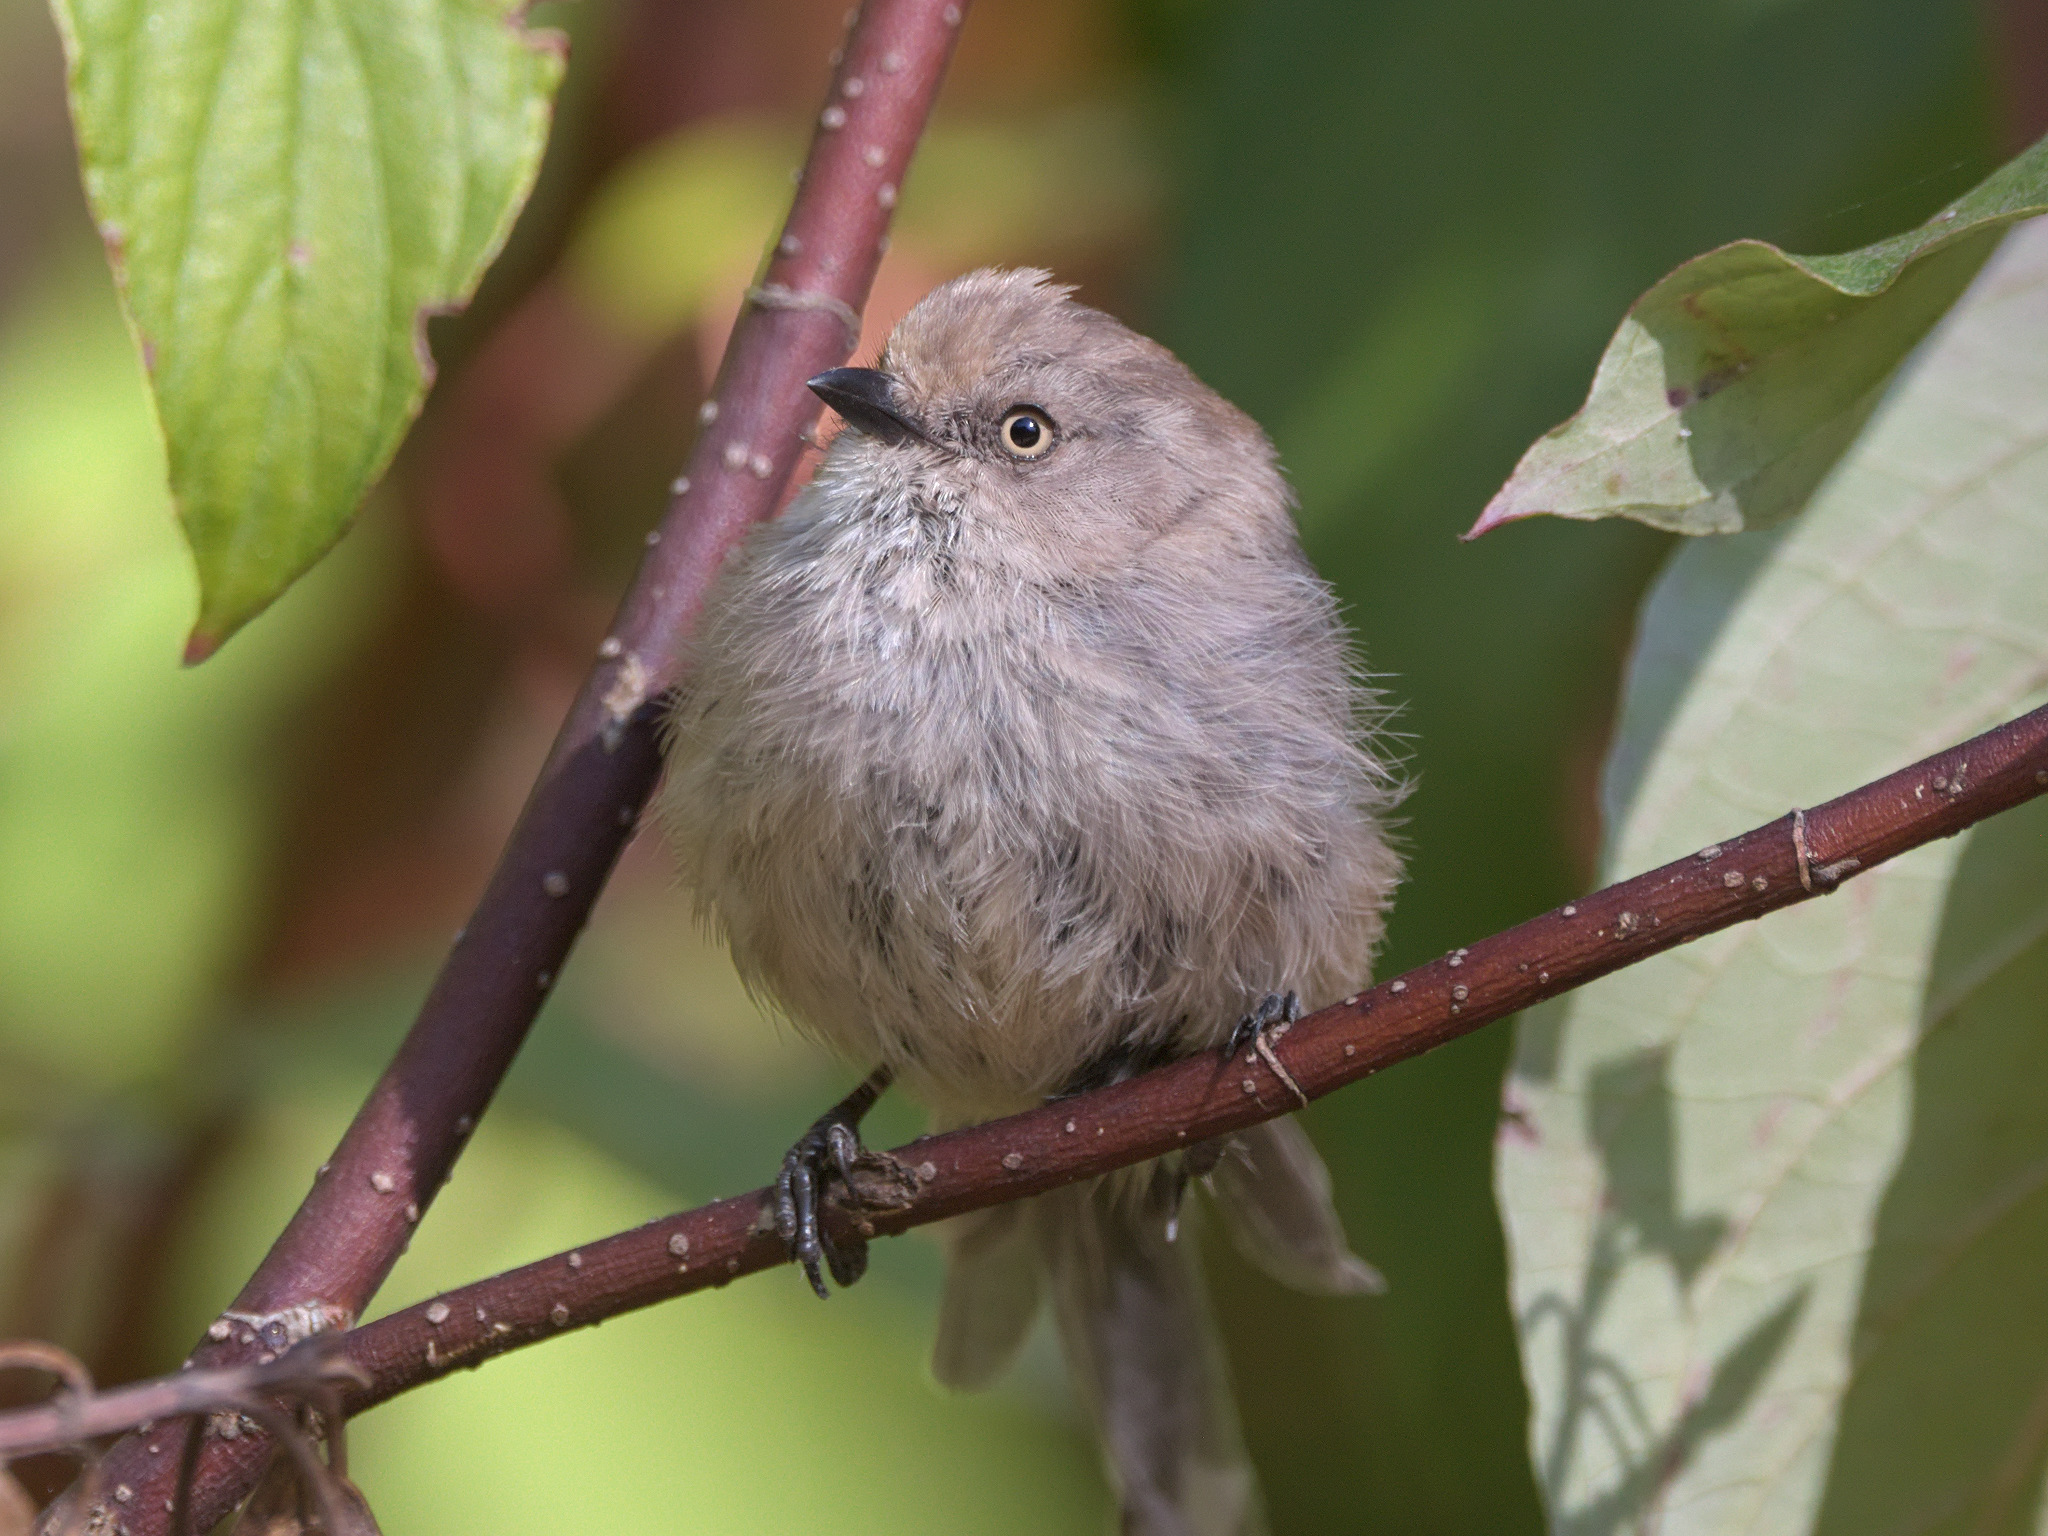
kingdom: Animalia
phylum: Chordata
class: Aves
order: Passeriformes
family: Aegithalidae
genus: Psaltriparus
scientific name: Psaltriparus minimus
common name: American bushtit
